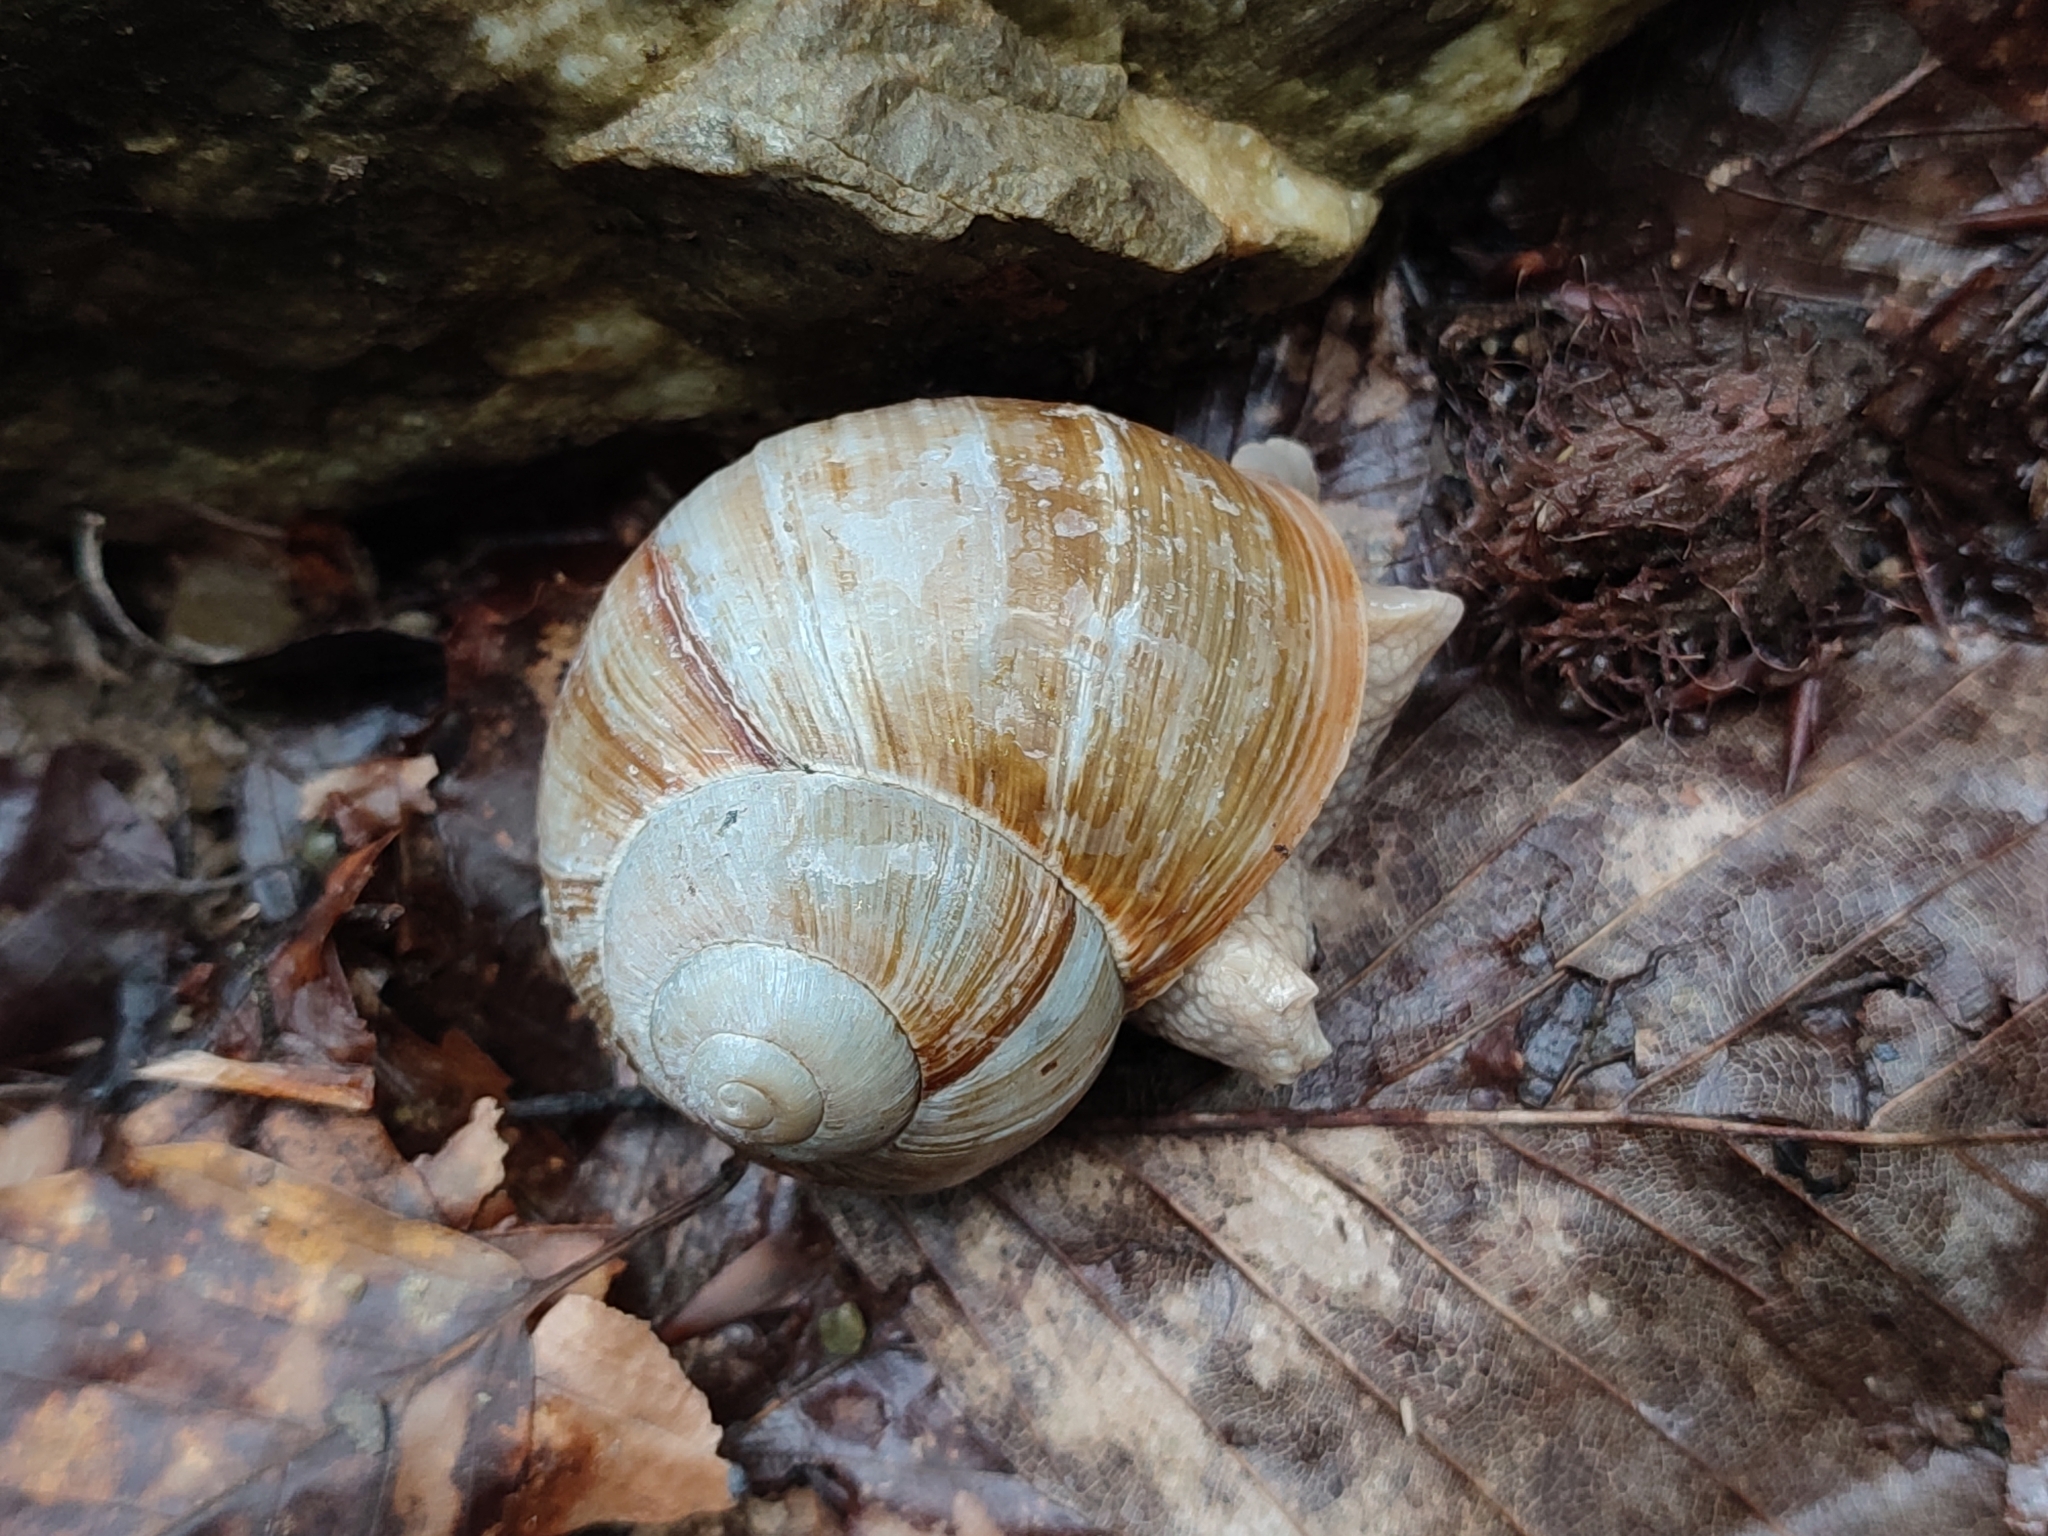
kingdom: Animalia
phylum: Mollusca
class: Gastropoda
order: Stylommatophora
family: Helicidae
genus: Helix
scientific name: Helix pomatia
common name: Roman snail
